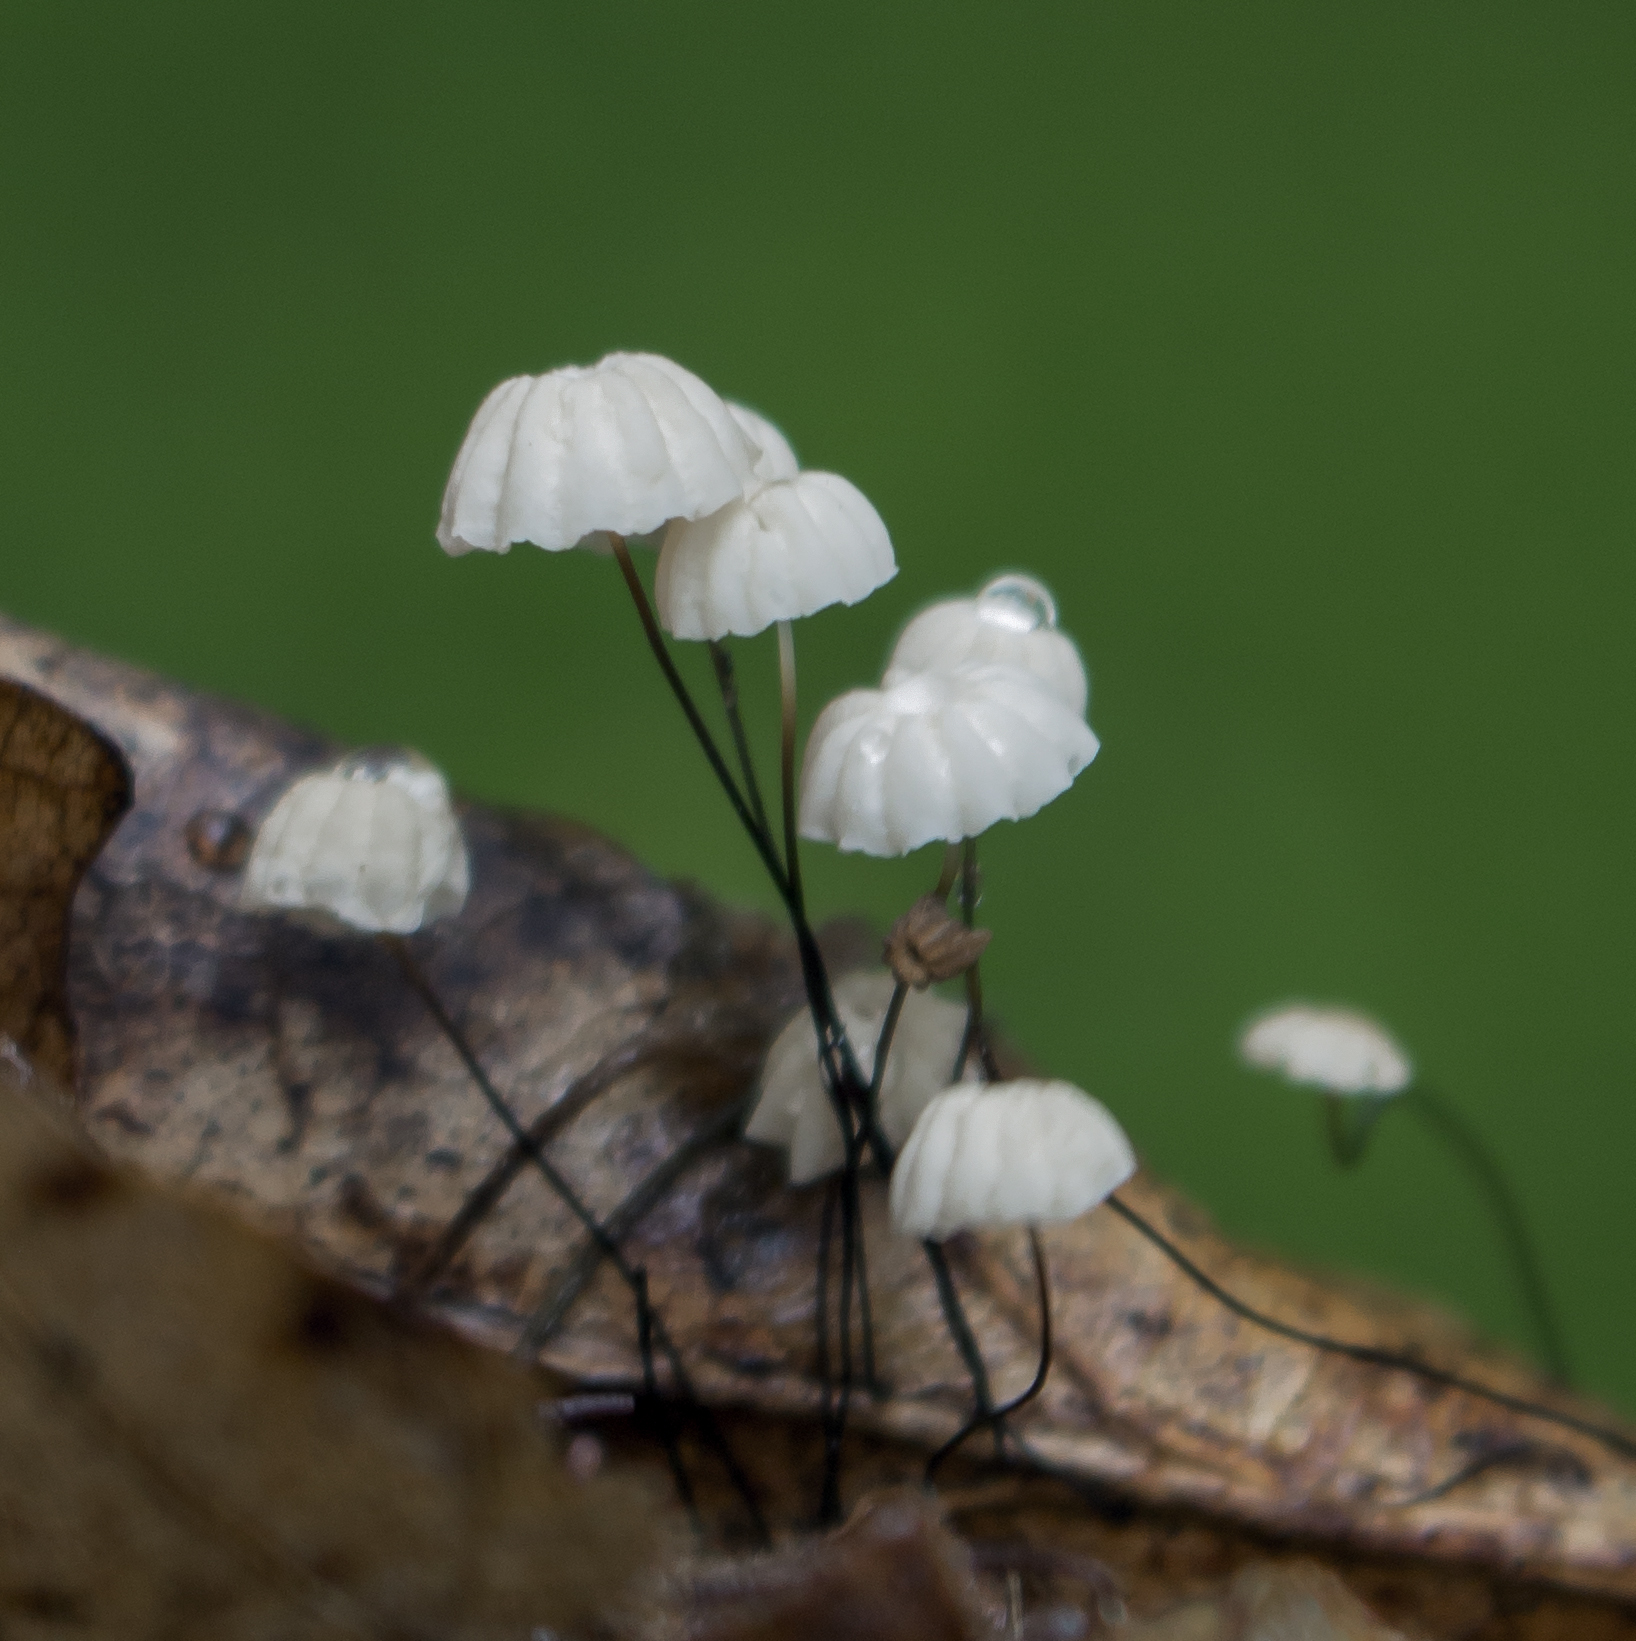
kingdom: Fungi
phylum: Basidiomycota
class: Agaricomycetes
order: Agaricales
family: Marasmiaceae
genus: Marasmius
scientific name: Marasmius capillaris
